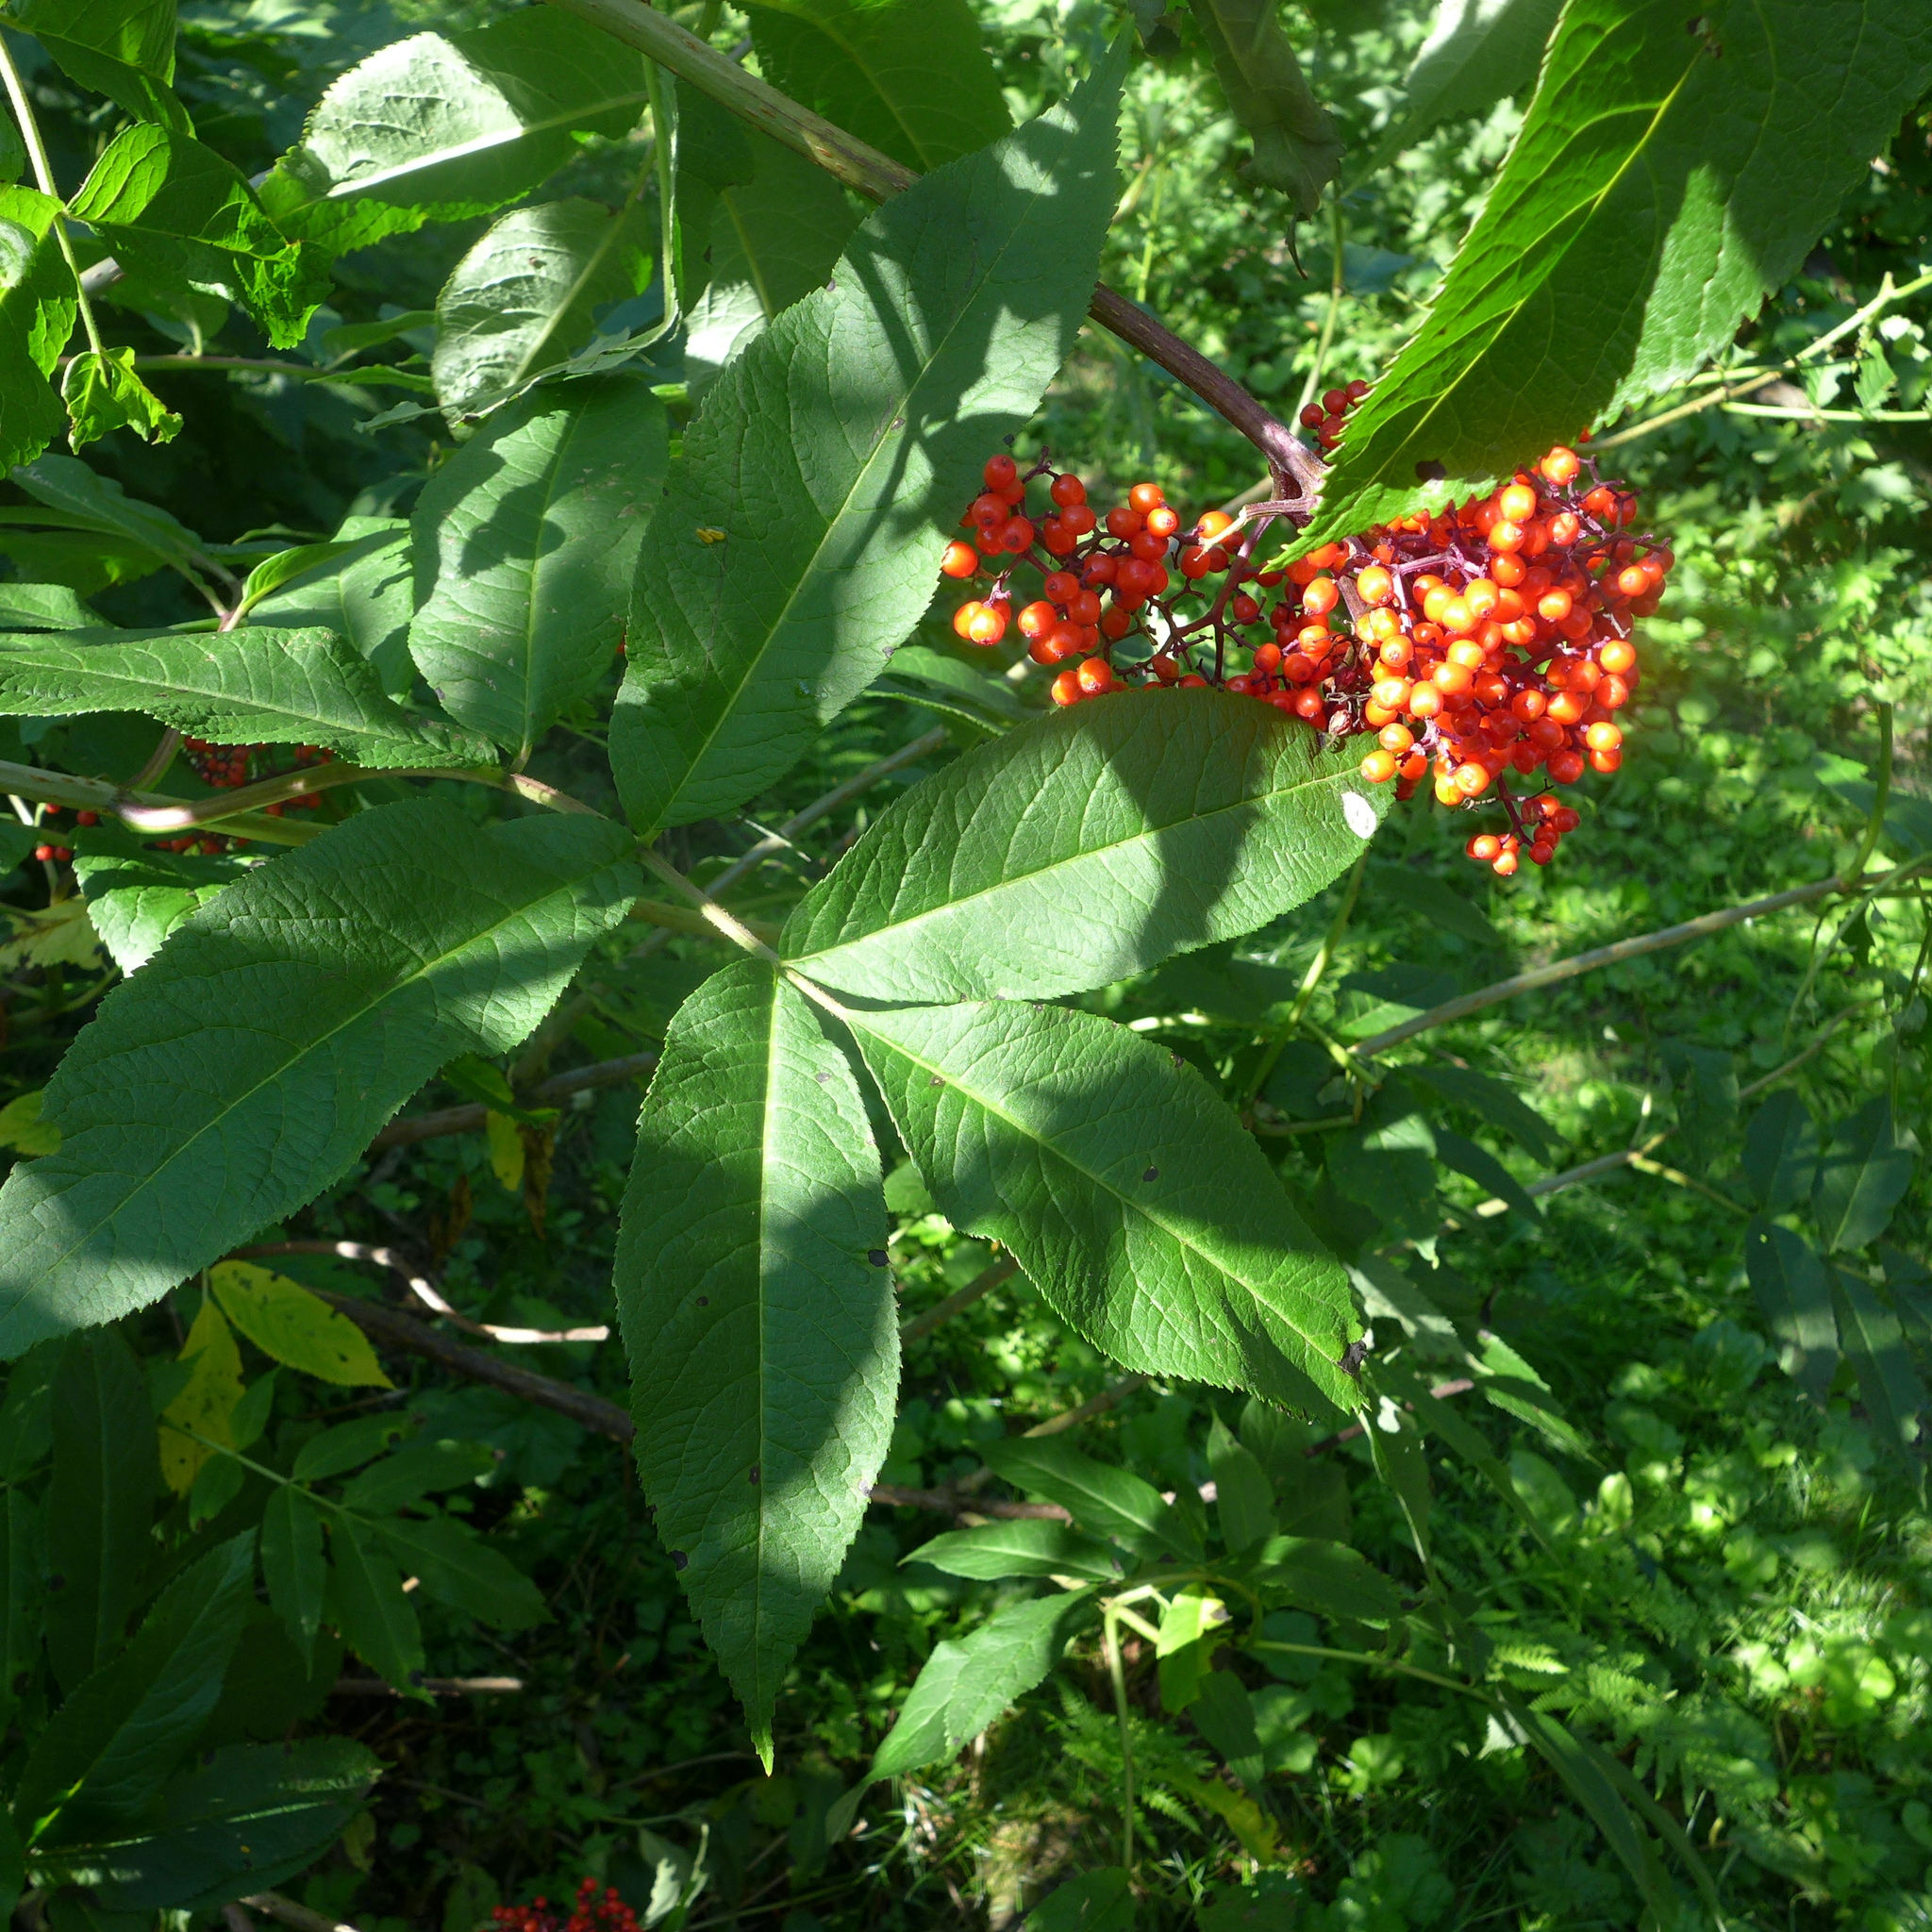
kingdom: Plantae
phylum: Tracheophyta
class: Magnoliopsida
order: Dipsacales
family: Viburnaceae
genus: Sambucus
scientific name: Sambucus racemosa
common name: Red-berried elder
